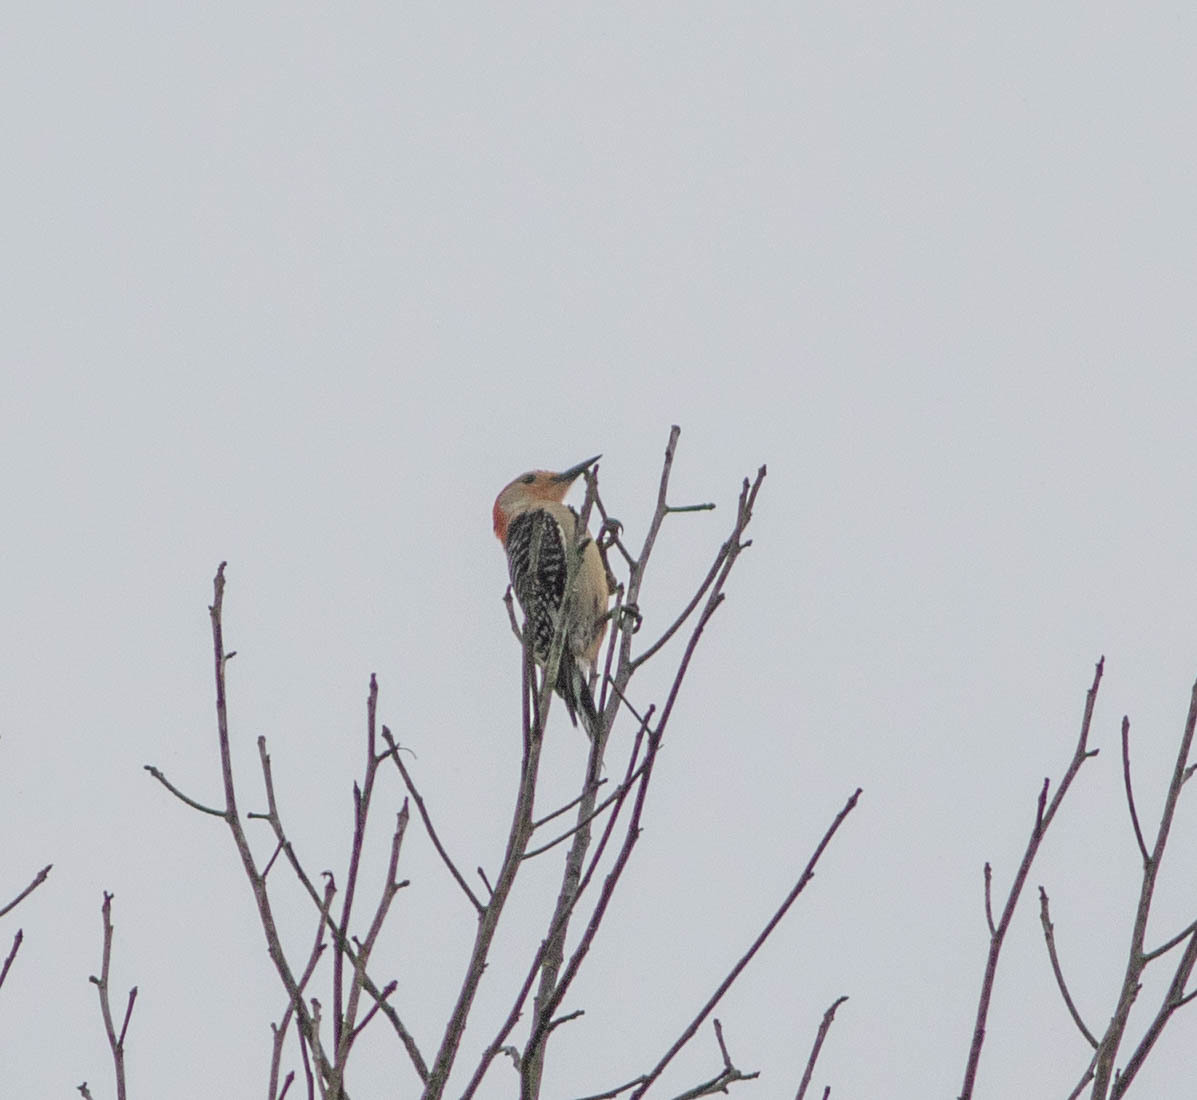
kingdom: Animalia
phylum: Chordata
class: Aves
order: Piciformes
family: Picidae
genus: Melanerpes
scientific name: Melanerpes carolinus
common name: Red-bellied woodpecker
